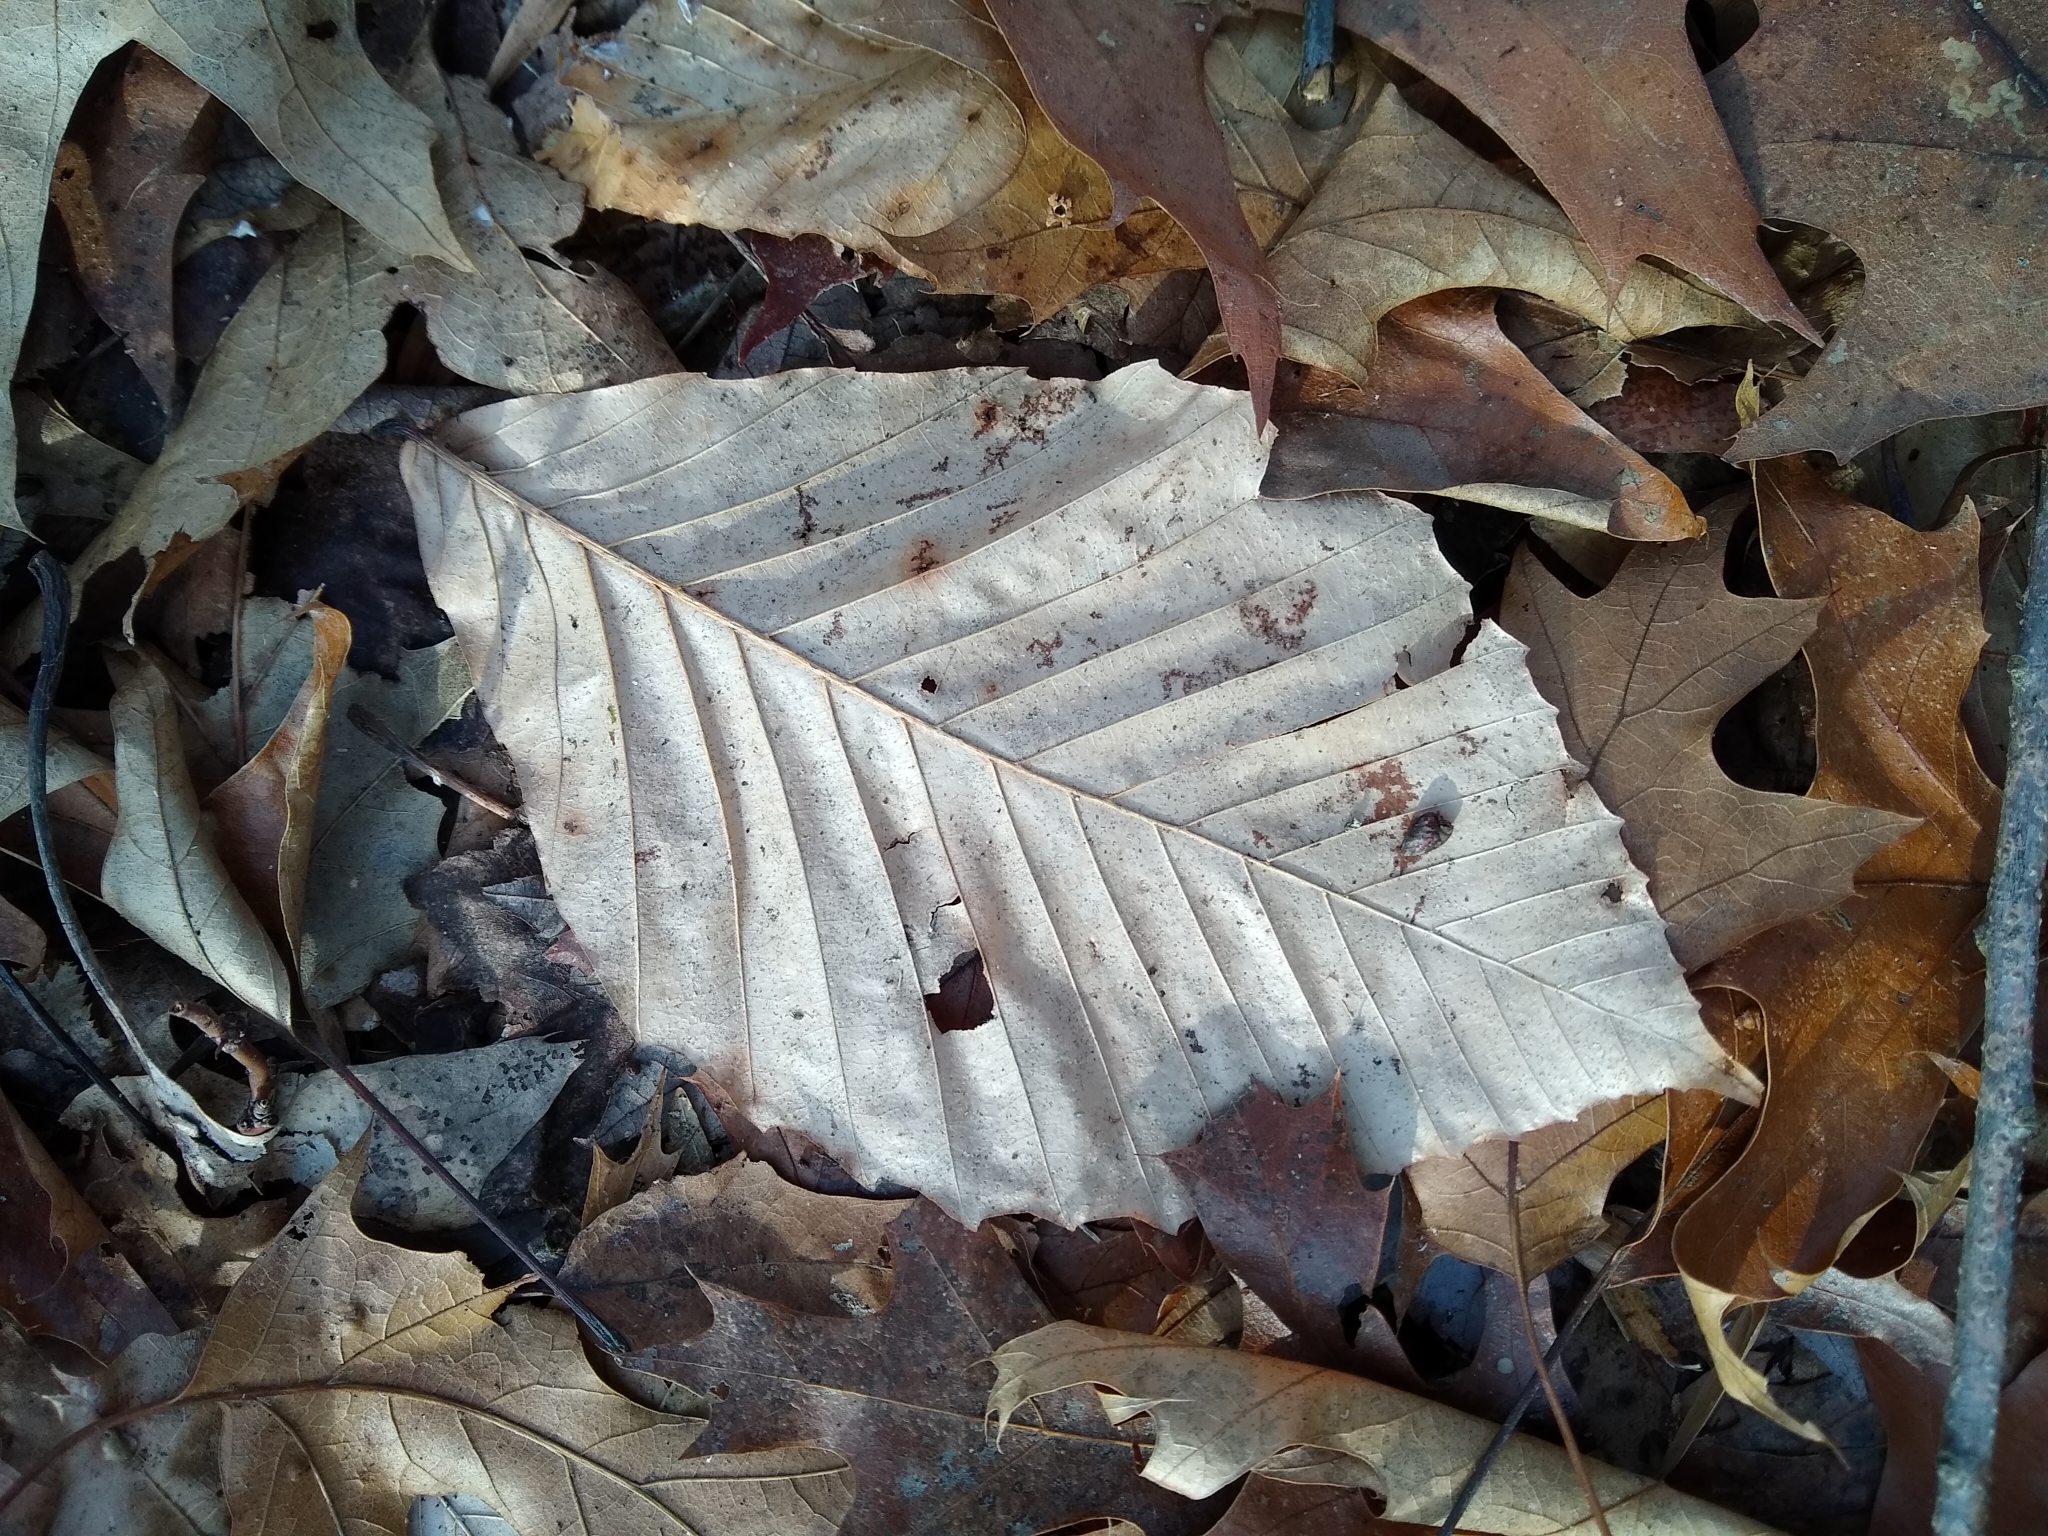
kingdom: Plantae
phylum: Tracheophyta
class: Magnoliopsida
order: Fagales
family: Fagaceae
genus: Fagus
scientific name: Fagus grandifolia
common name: American beech
